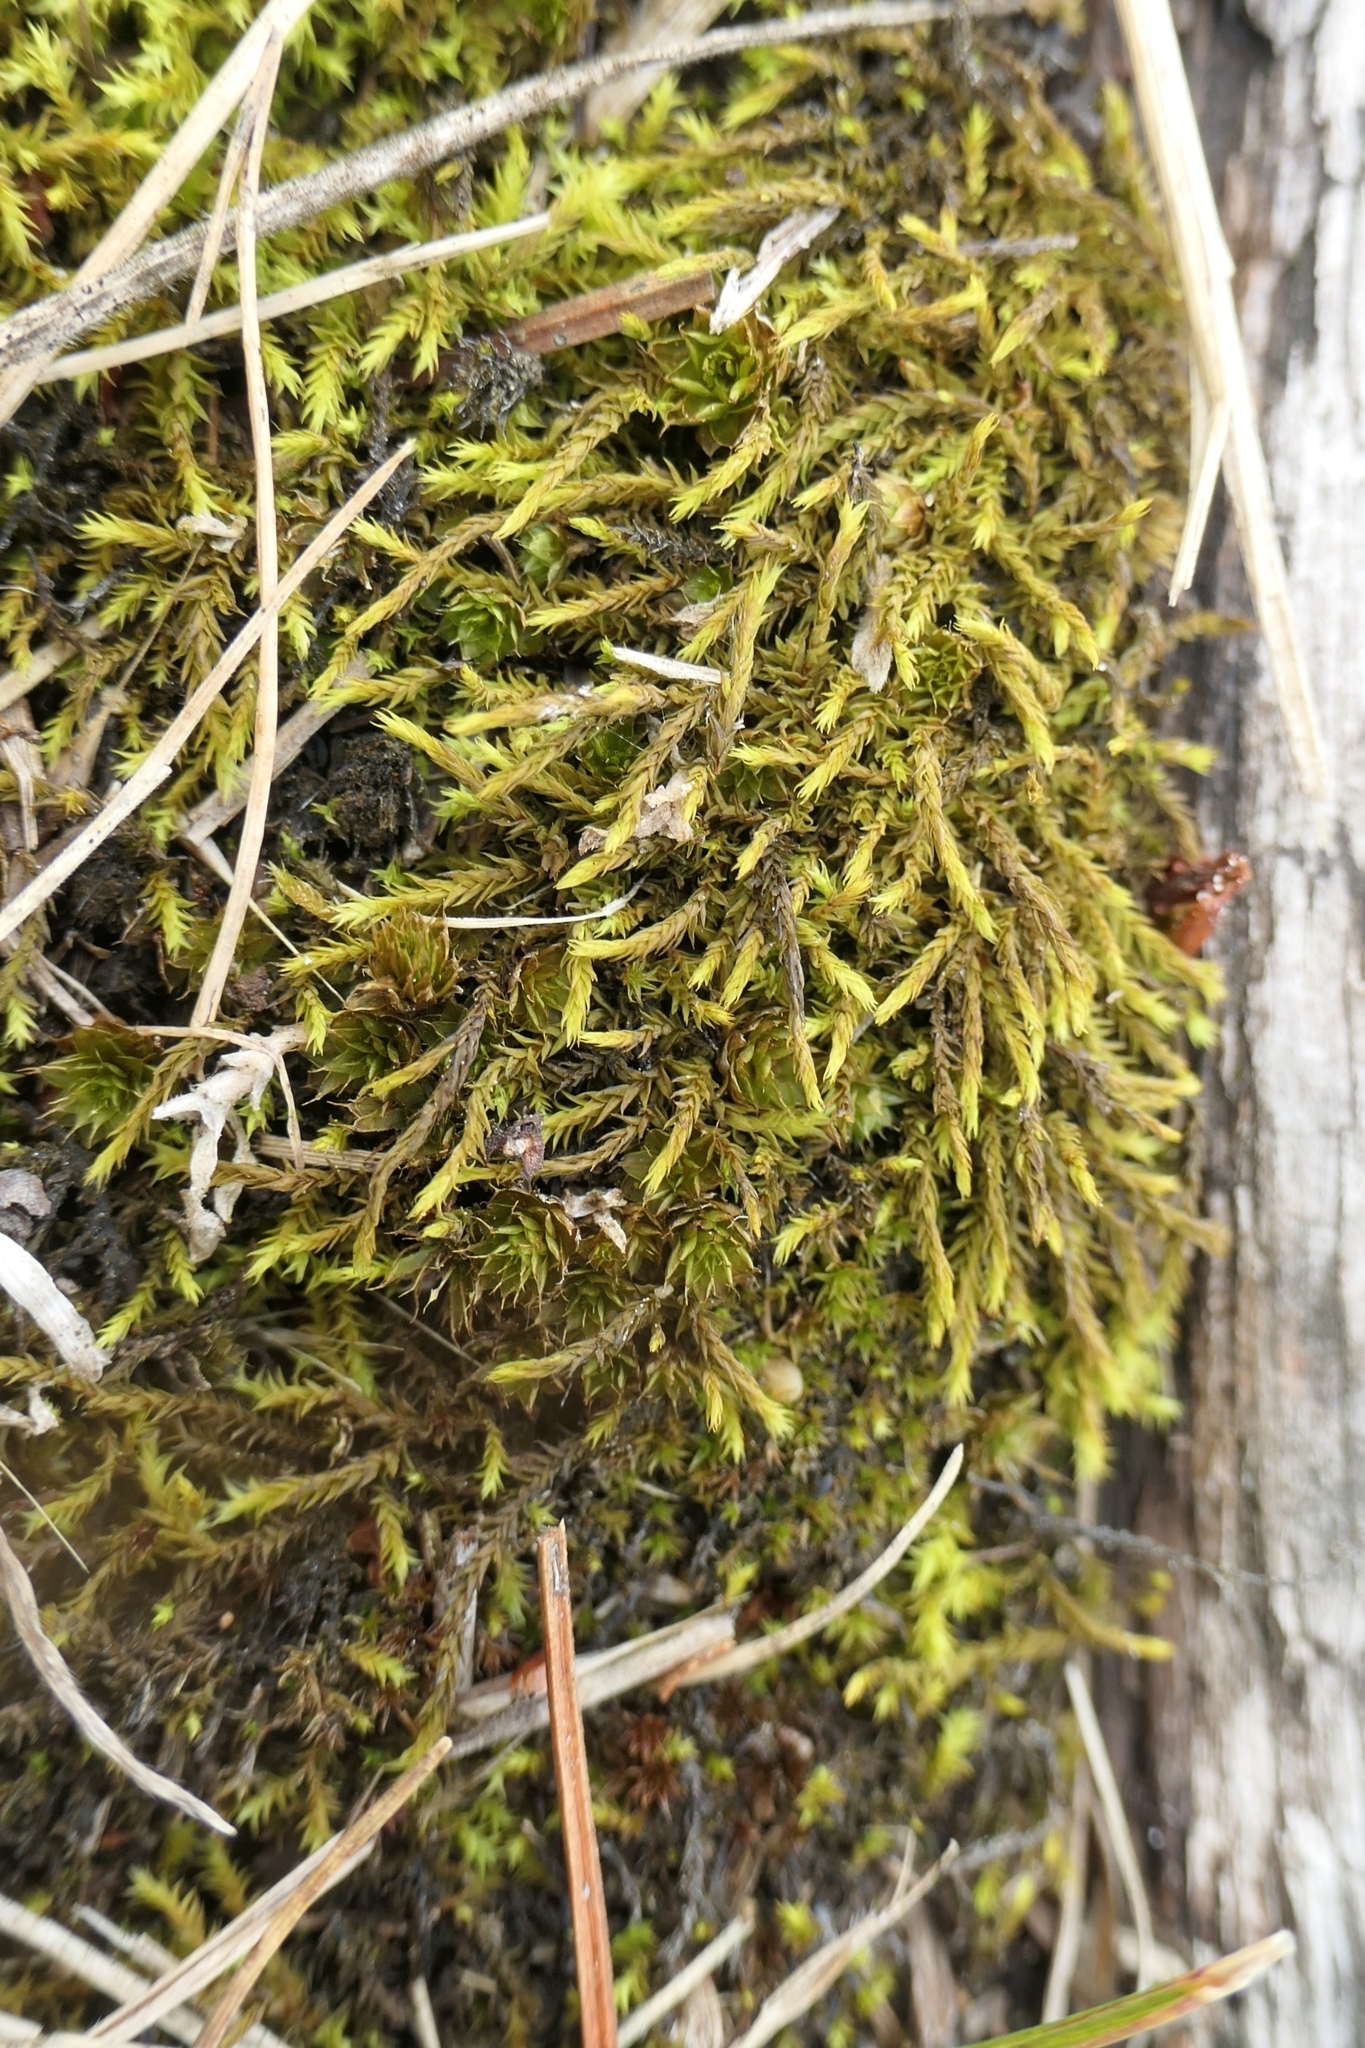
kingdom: Plantae
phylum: Bryophyta
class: Bryopsida
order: Pottiales
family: Pottiaceae
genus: Triquetrella
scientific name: Triquetrella papillata
